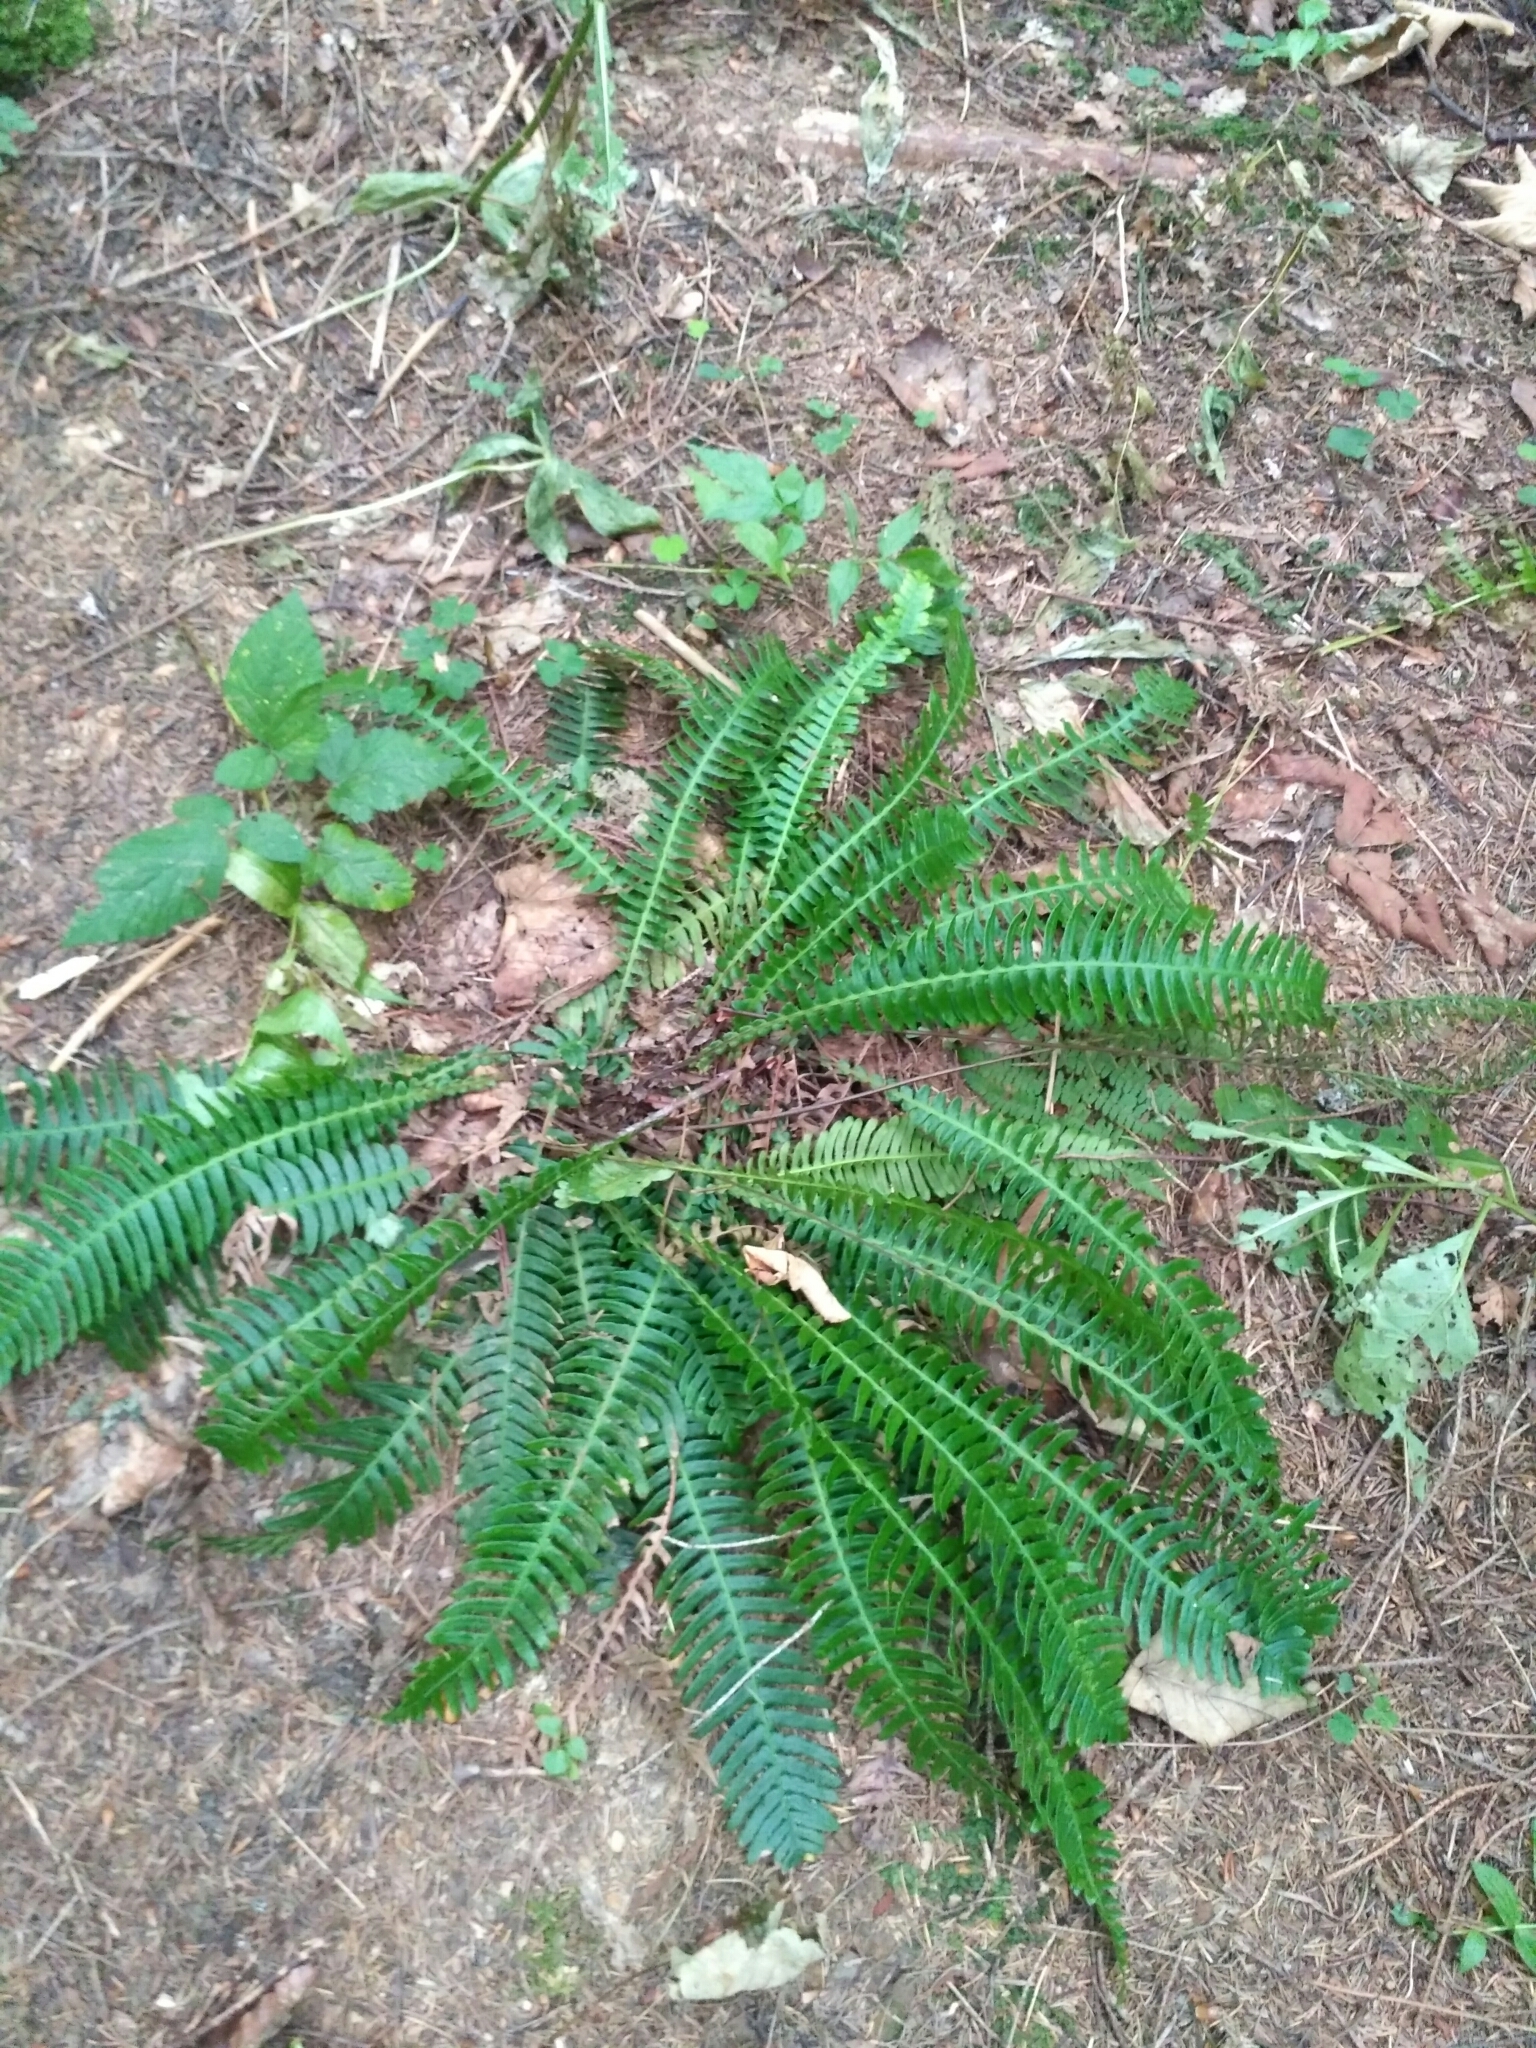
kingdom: Plantae
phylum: Tracheophyta
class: Polypodiopsida
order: Polypodiales
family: Blechnaceae
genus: Struthiopteris
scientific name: Struthiopteris spicant
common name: Deer fern
